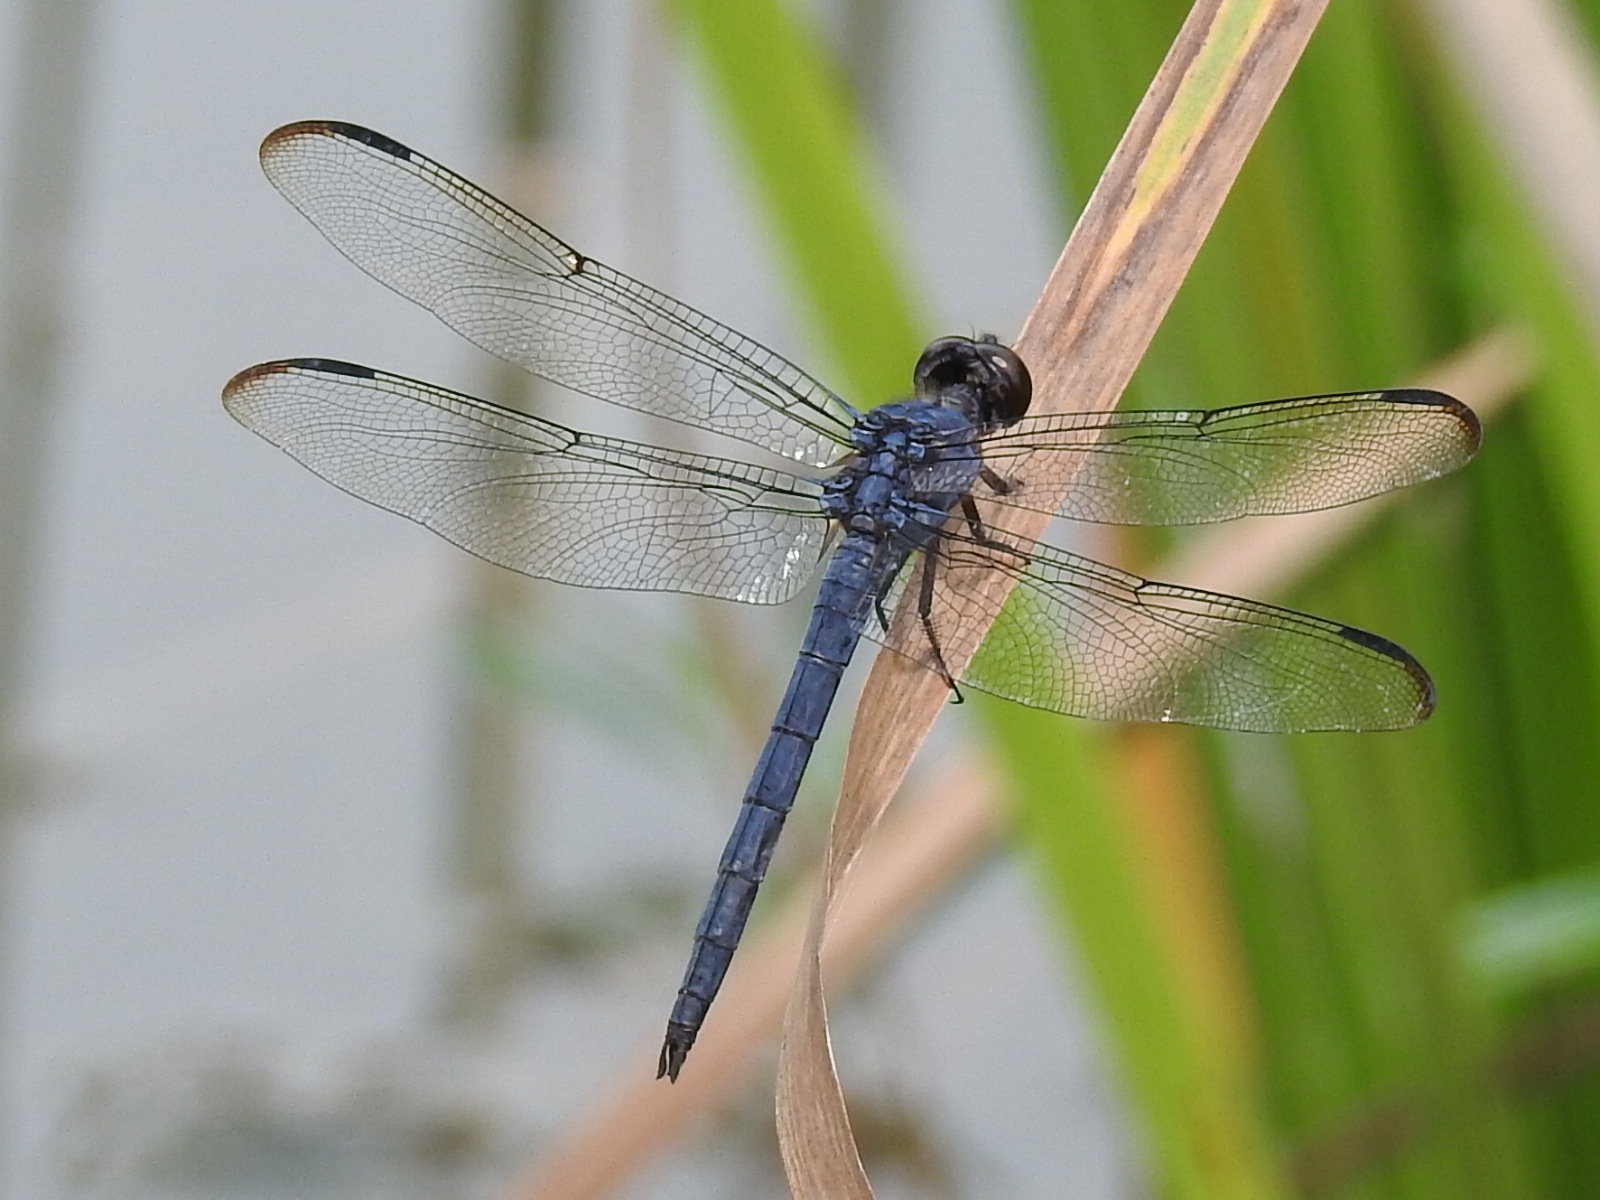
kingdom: Animalia
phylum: Arthropoda
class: Insecta
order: Odonata
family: Libellulidae
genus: Libellula
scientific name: Libellula incesta
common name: Slaty skimmer
